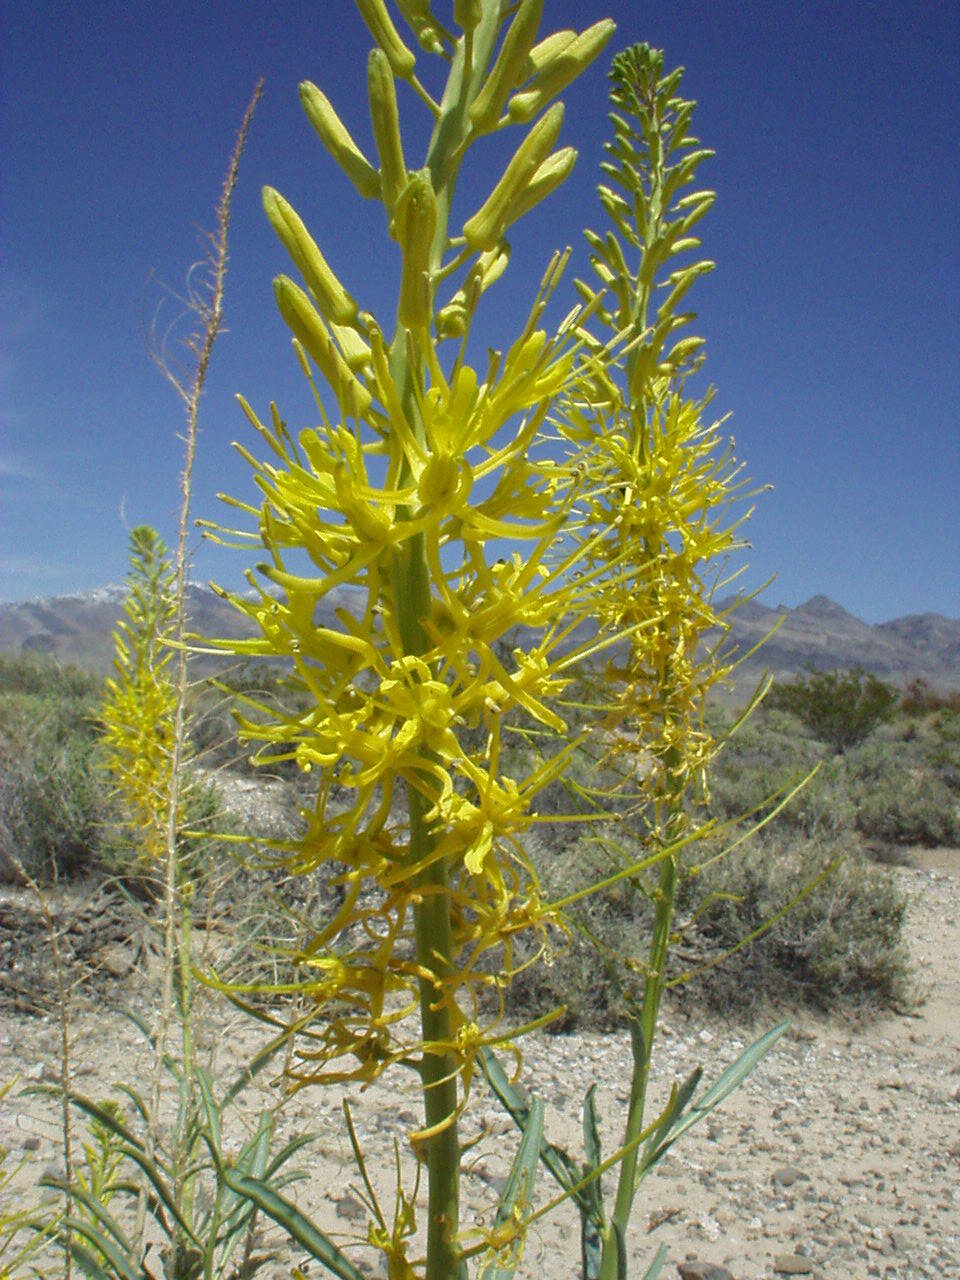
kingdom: Plantae
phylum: Tracheophyta
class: Magnoliopsida
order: Brassicales
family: Brassicaceae
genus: Stanleya
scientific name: Stanleya pinnata
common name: Prince's-plume
